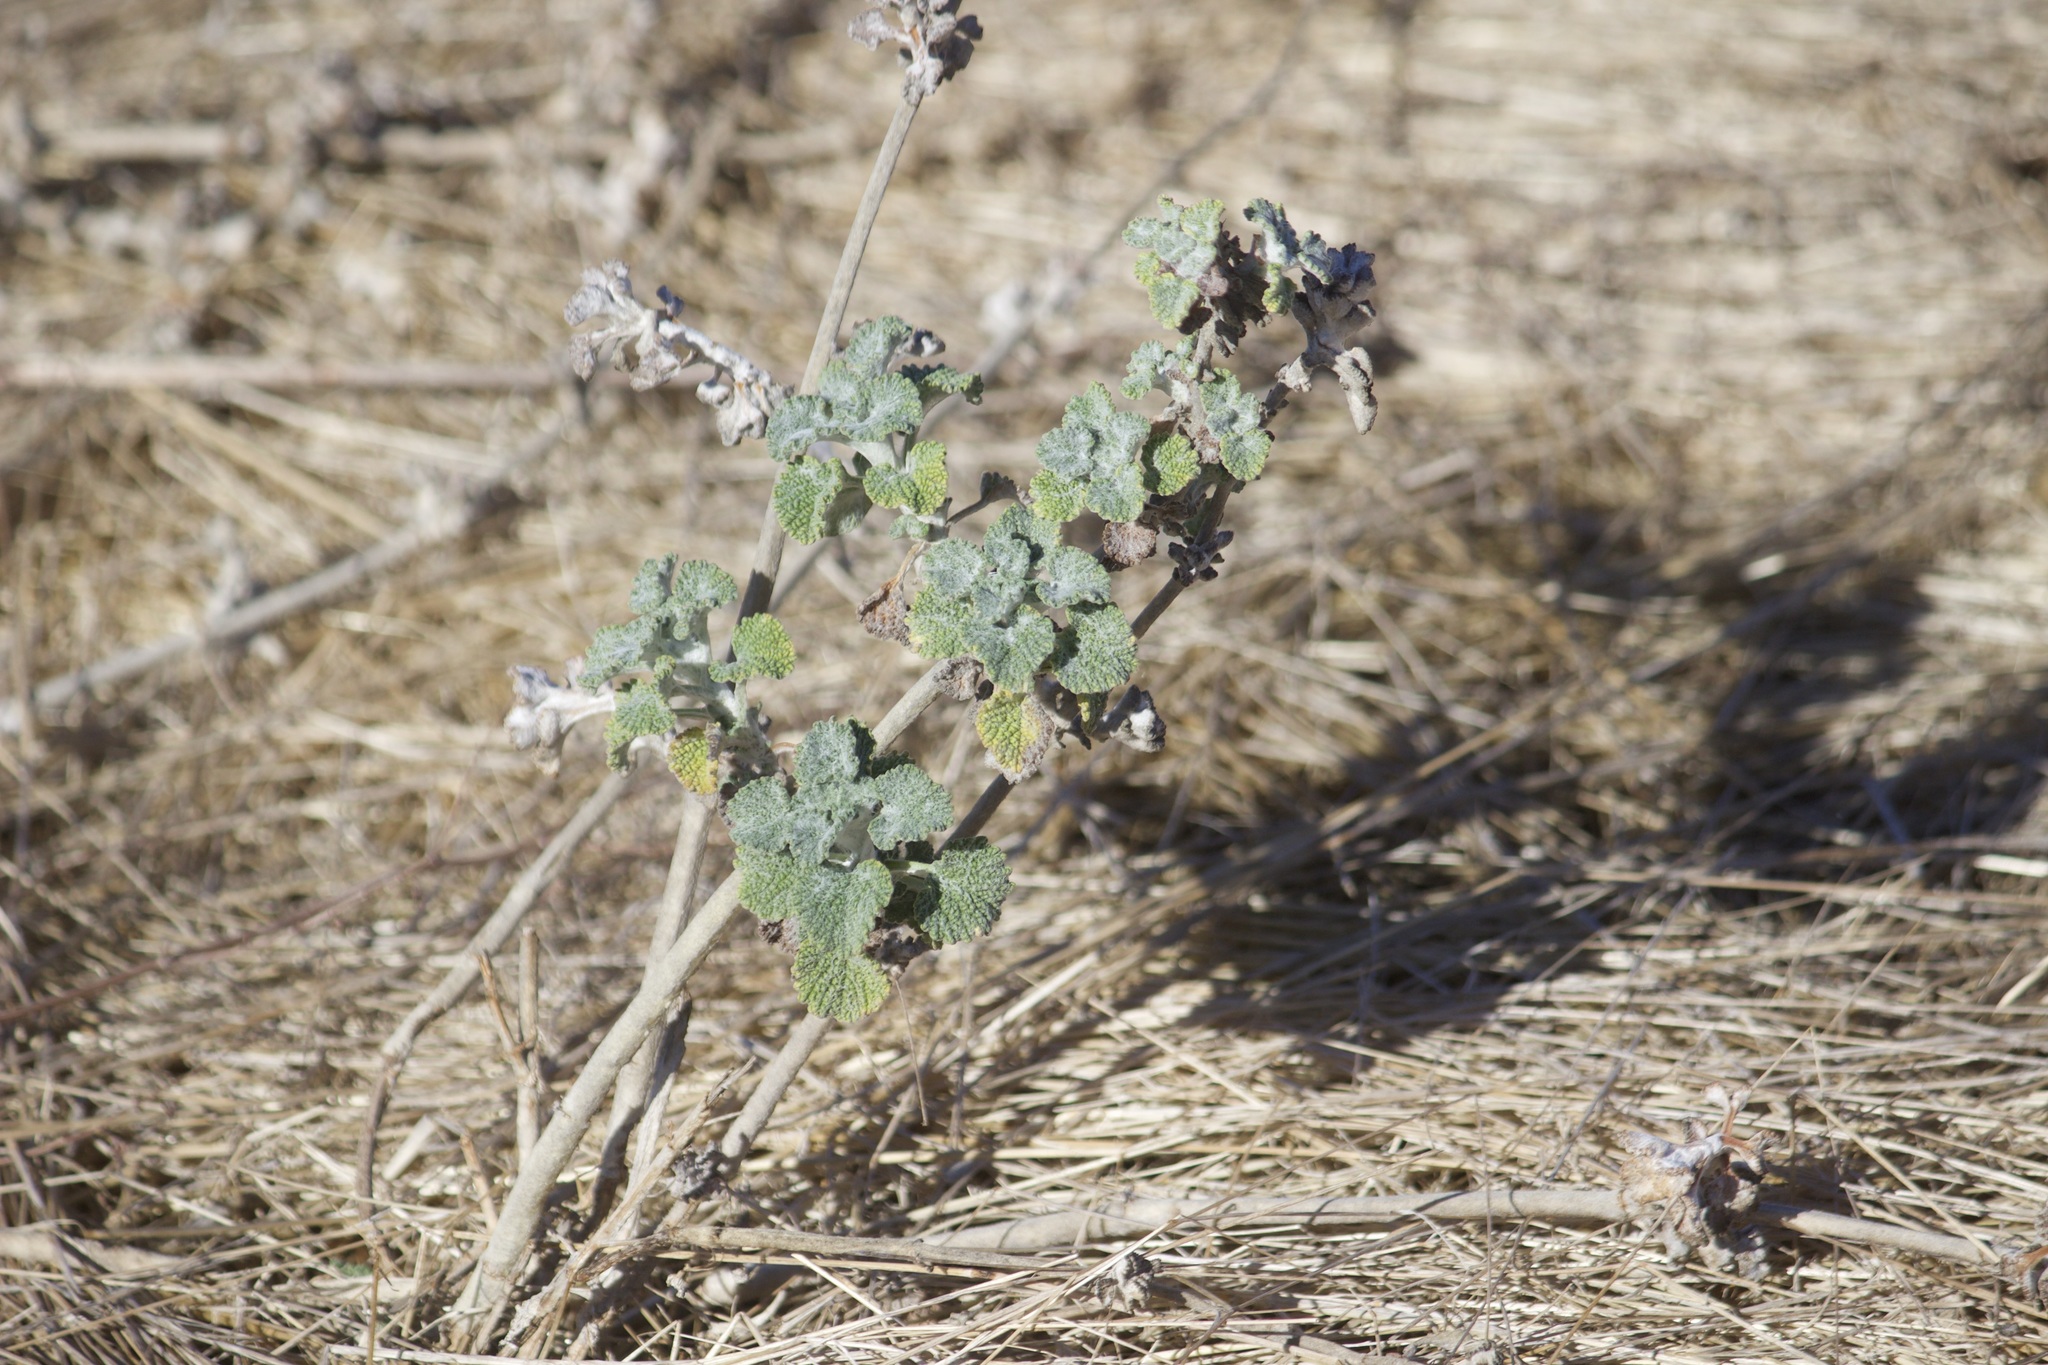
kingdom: Plantae
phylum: Tracheophyta
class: Magnoliopsida
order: Lamiales
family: Lamiaceae
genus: Marrubium
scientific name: Marrubium vulgare
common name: Horehound
